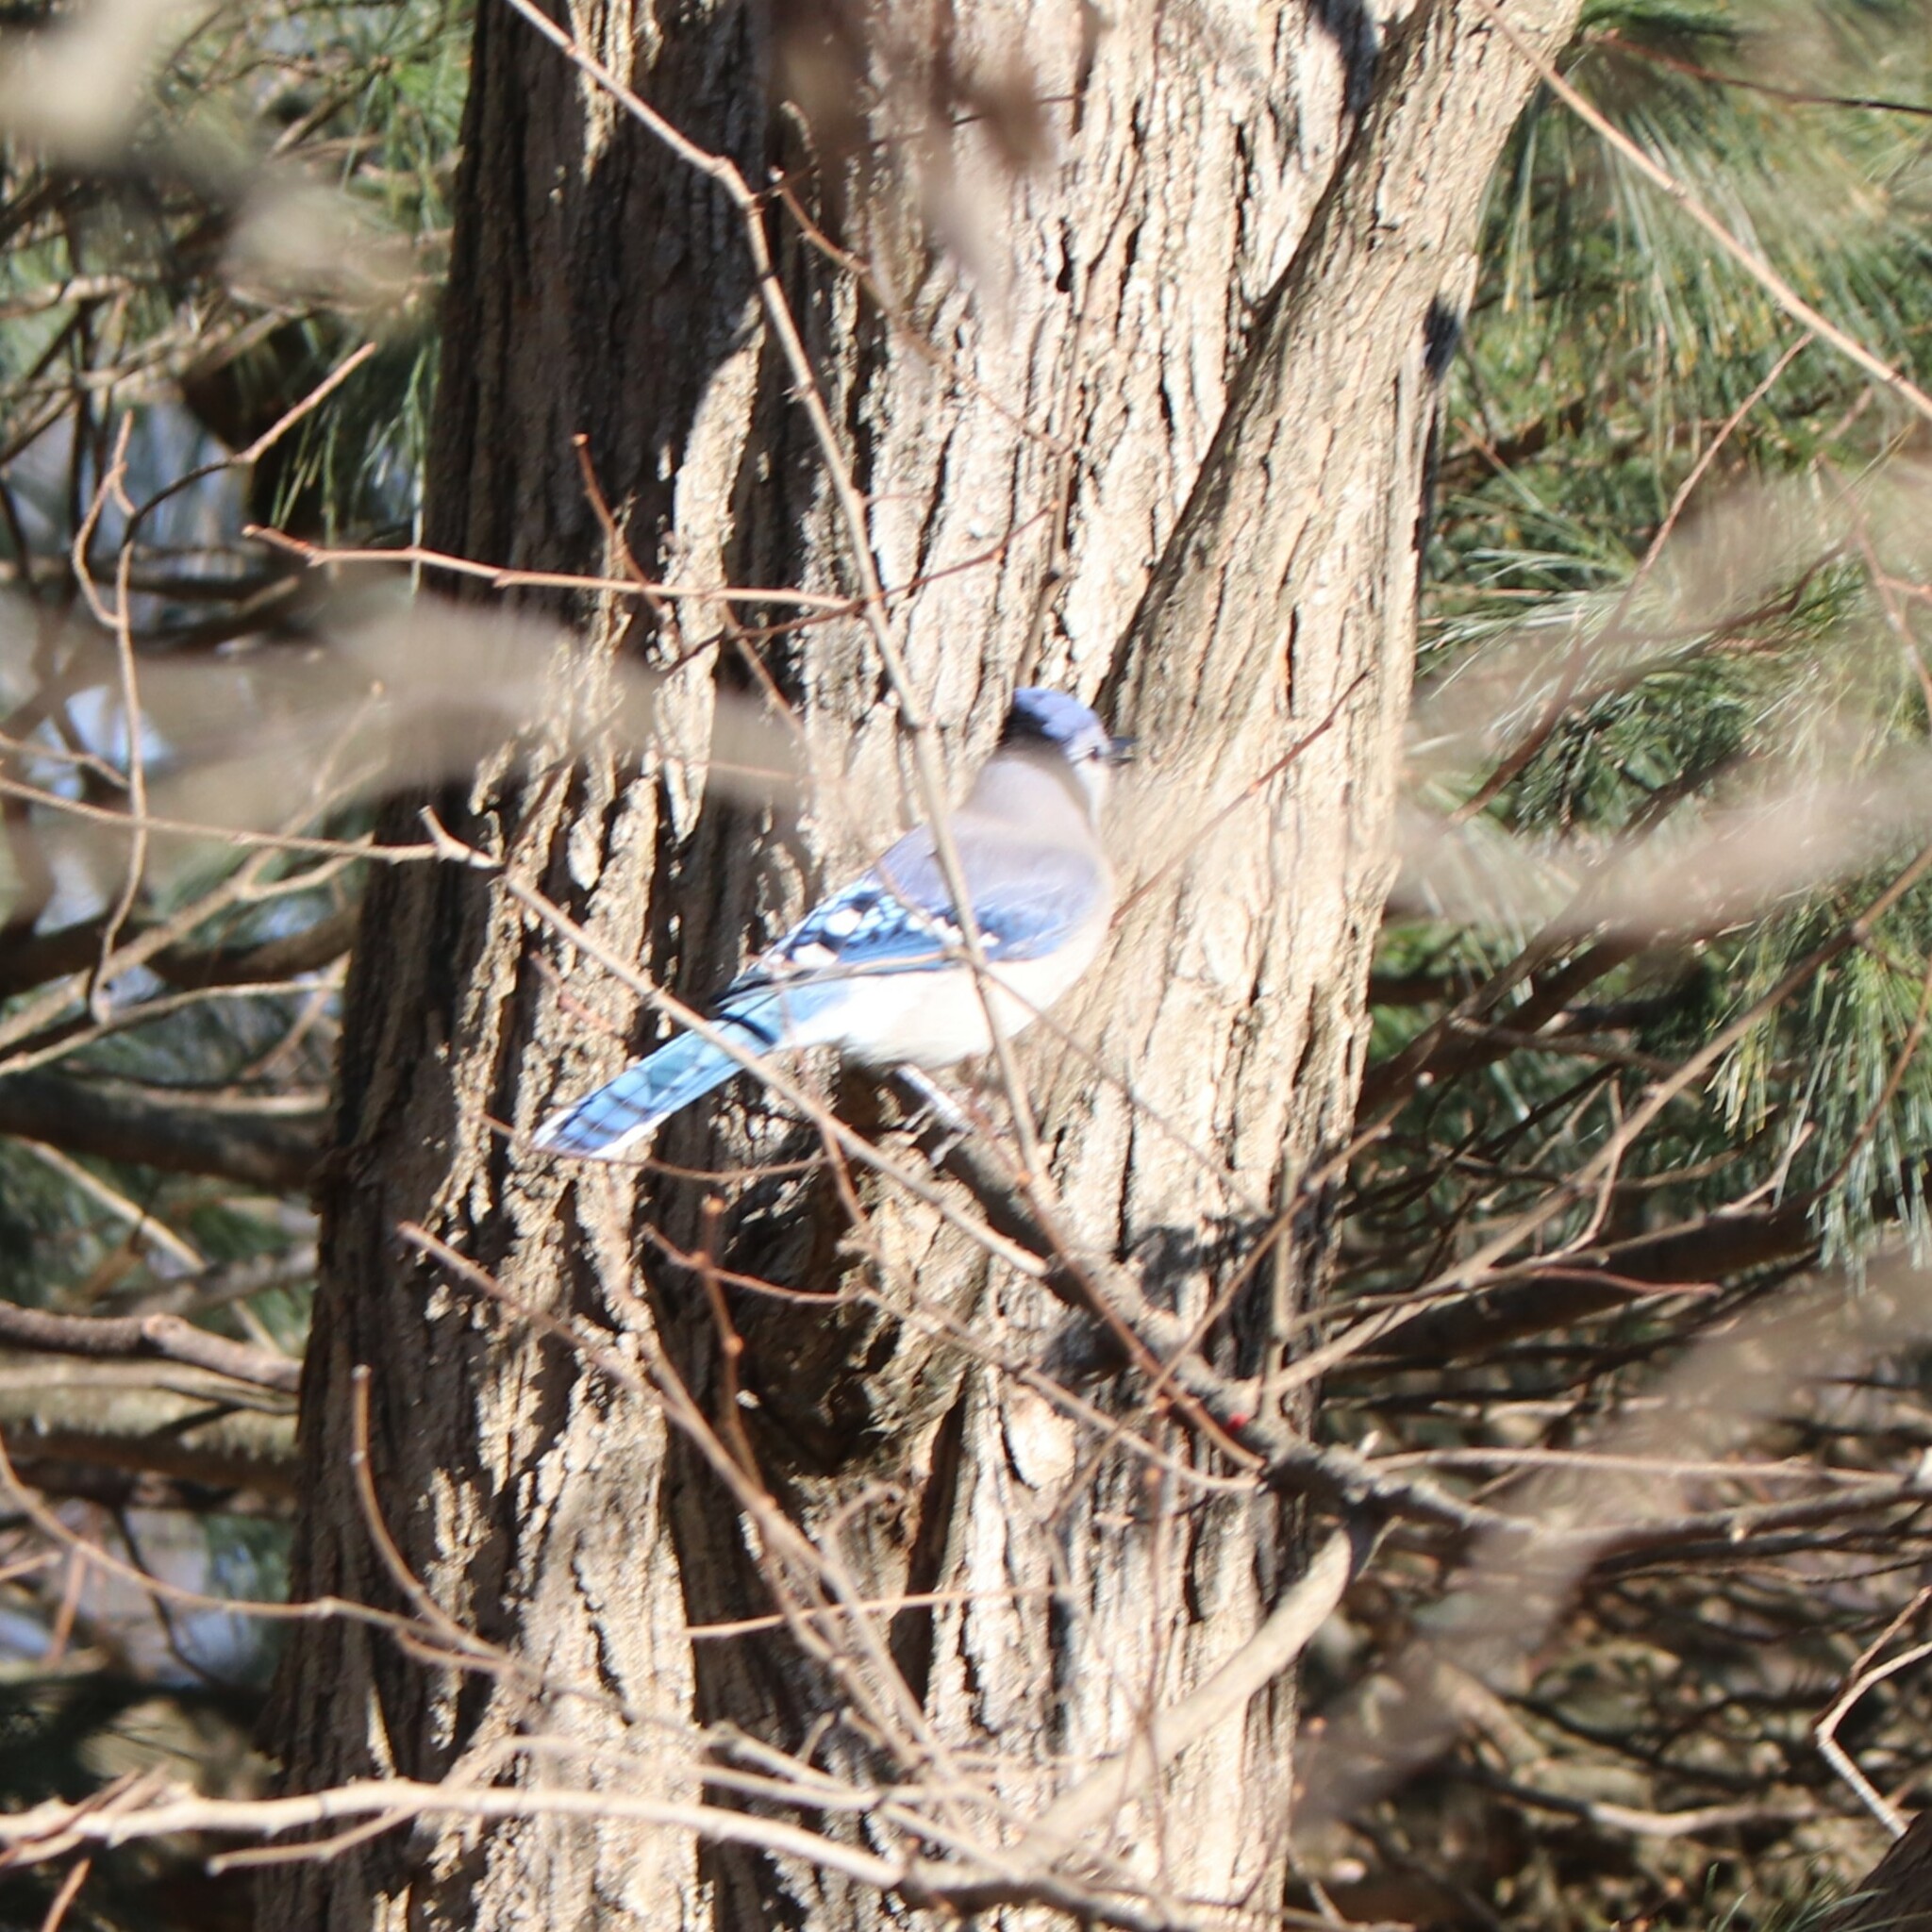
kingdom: Animalia
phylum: Chordata
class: Aves
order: Passeriformes
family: Corvidae
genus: Cyanocitta
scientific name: Cyanocitta cristata
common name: Blue jay
